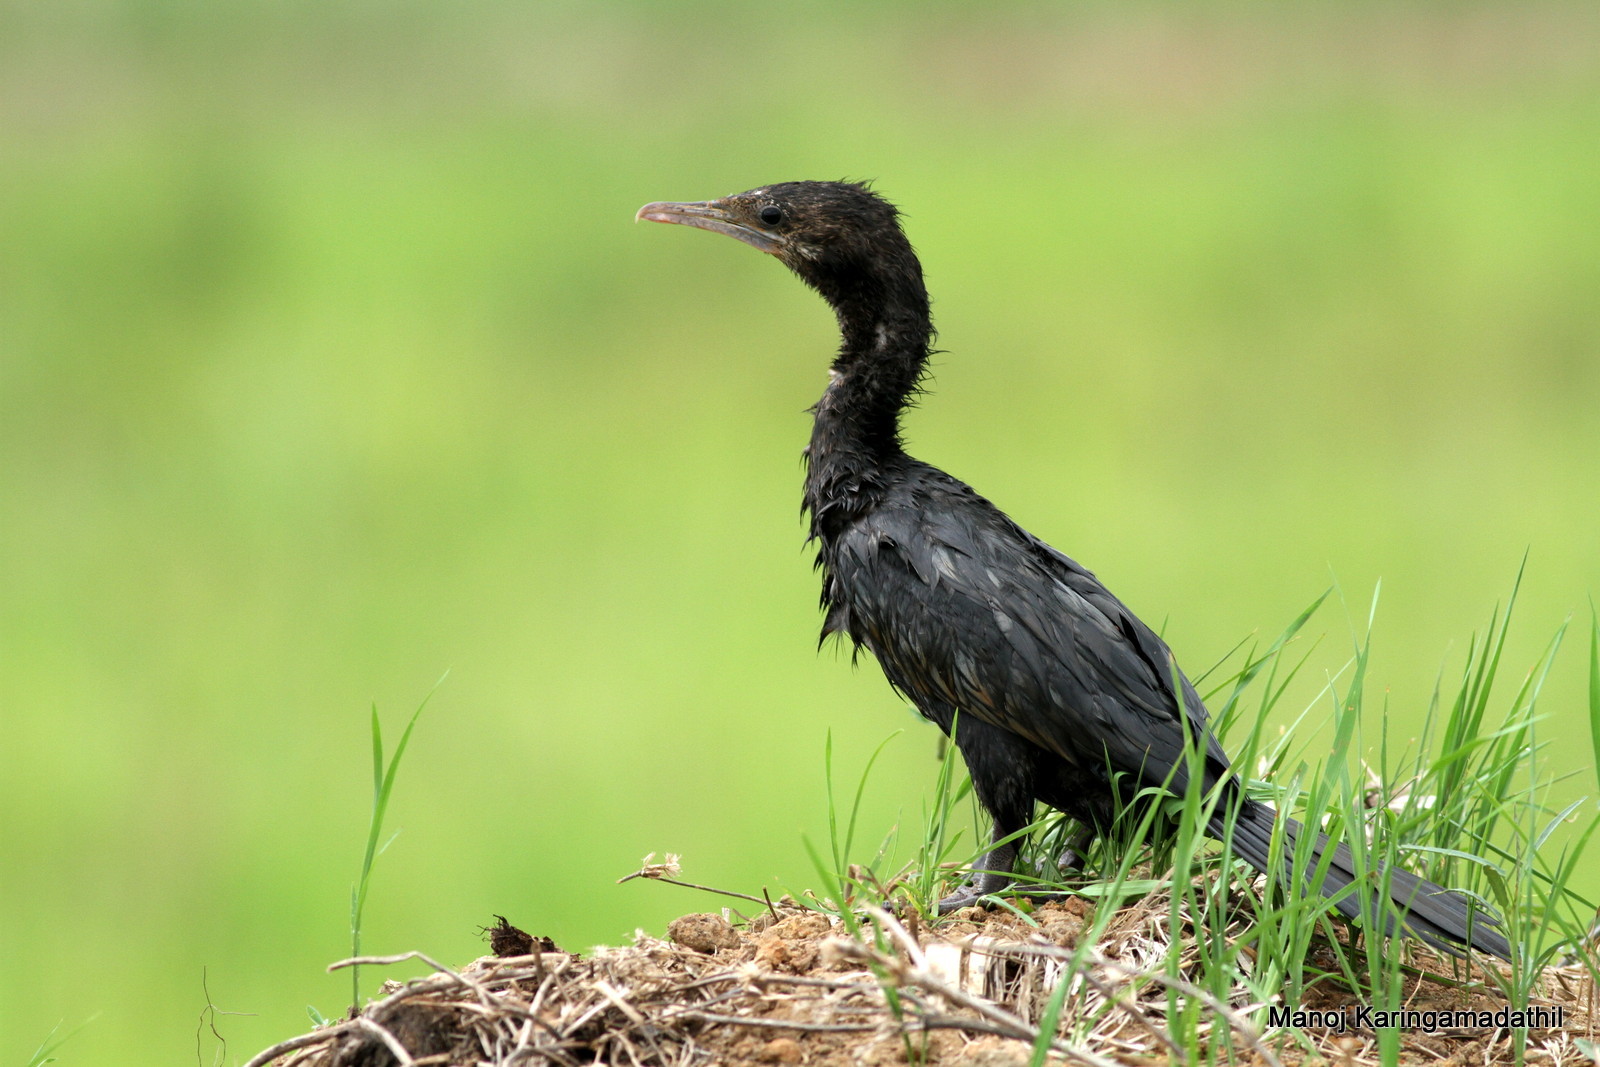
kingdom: Animalia
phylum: Chordata
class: Aves
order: Suliformes
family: Phalacrocoracidae
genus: Microcarbo
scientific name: Microcarbo niger
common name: Little cormorant
